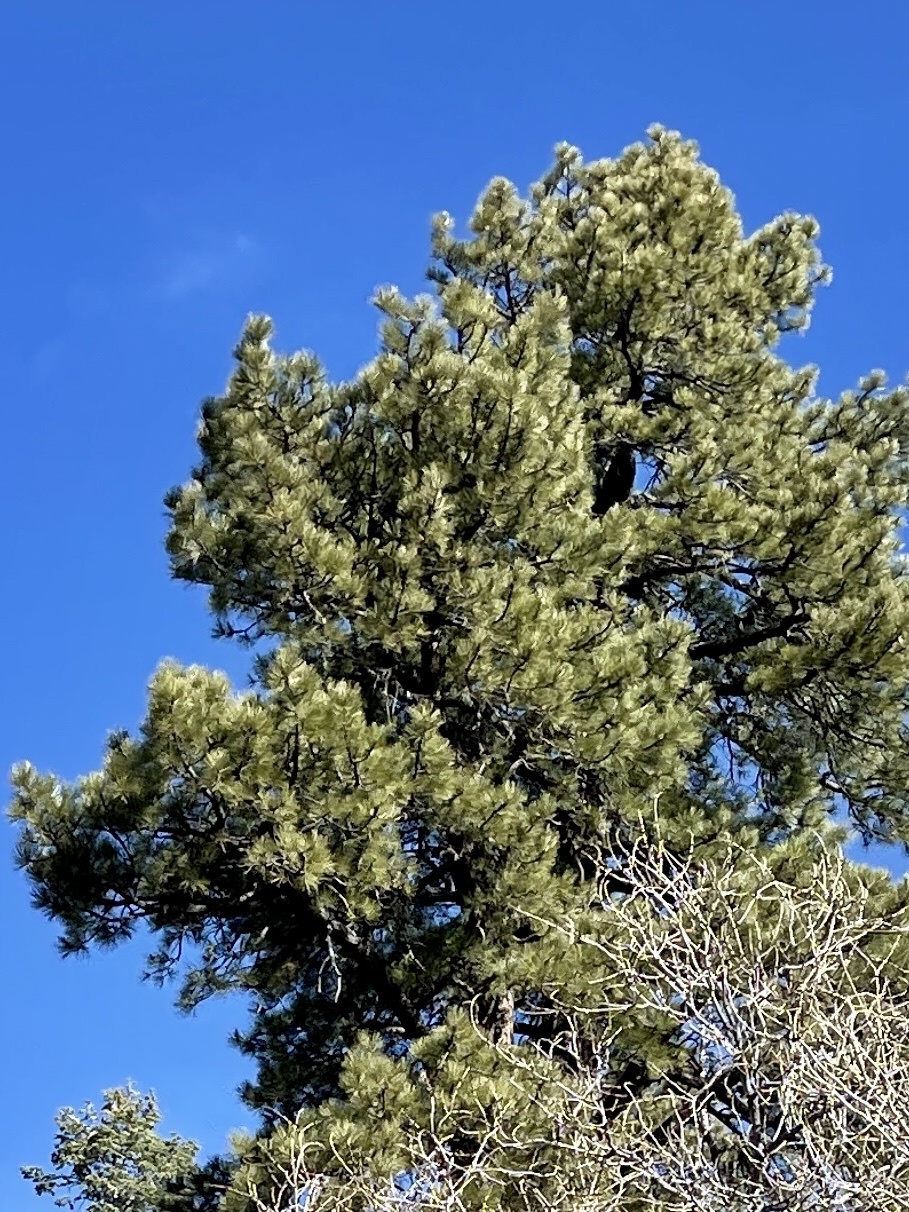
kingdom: Plantae
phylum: Tracheophyta
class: Pinopsida
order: Pinales
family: Pinaceae
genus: Pinus
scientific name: Pinus ponderosa
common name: Western yellow-pine
